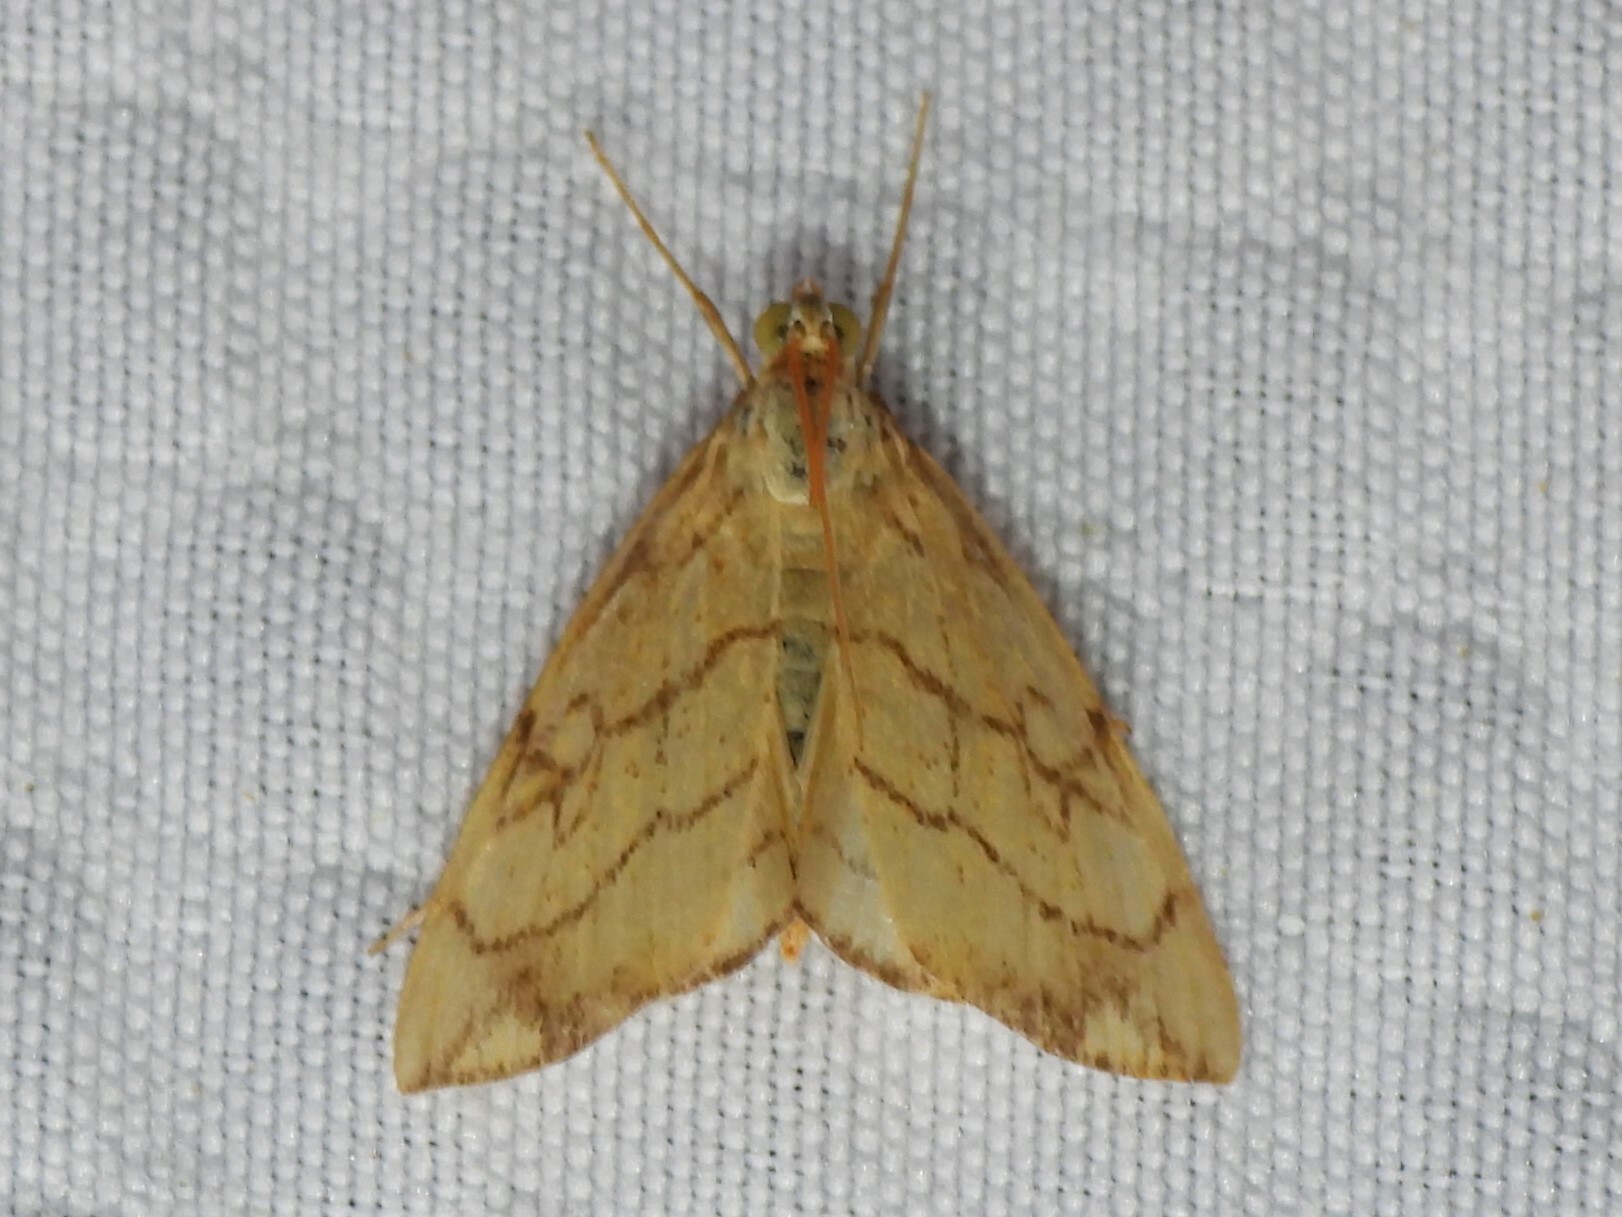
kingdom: Animalia
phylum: Arthropoda
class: Insecta
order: Lepidoptera
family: Crambidae
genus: Evergestis
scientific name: Evergestis pallidata
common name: Chequered pearl
